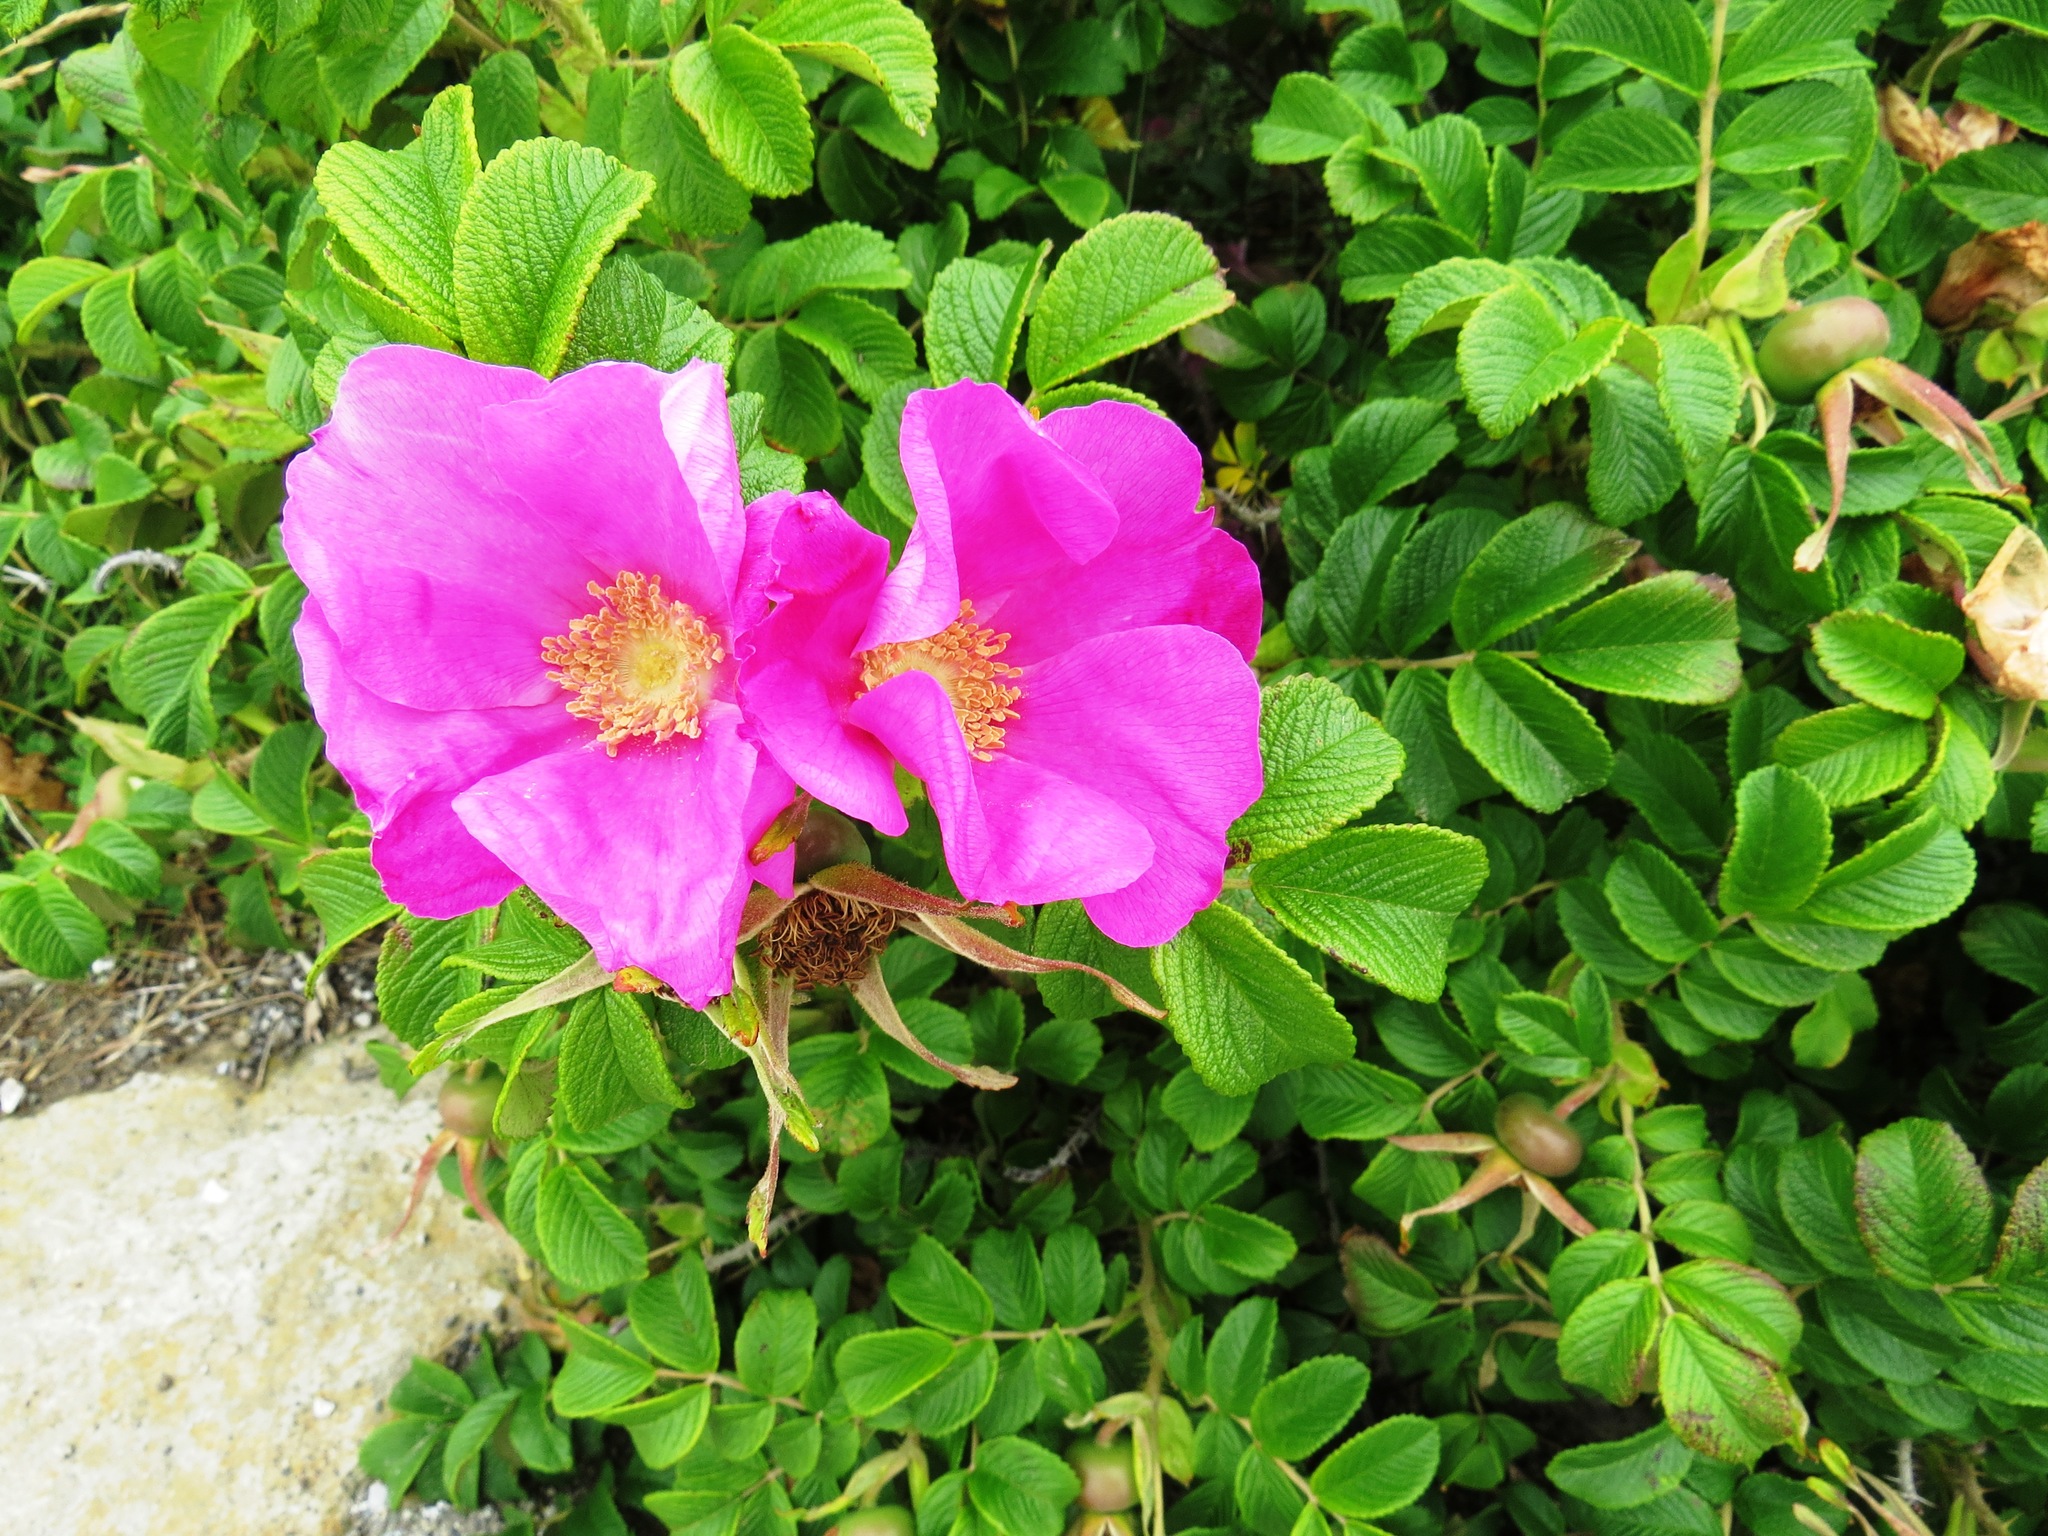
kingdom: Plantae
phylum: Tracheophyta
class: Magnoliopsida
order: Rosales
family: Rosaceae
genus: Rosa
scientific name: Rosa rugosa
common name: Japanese rose
